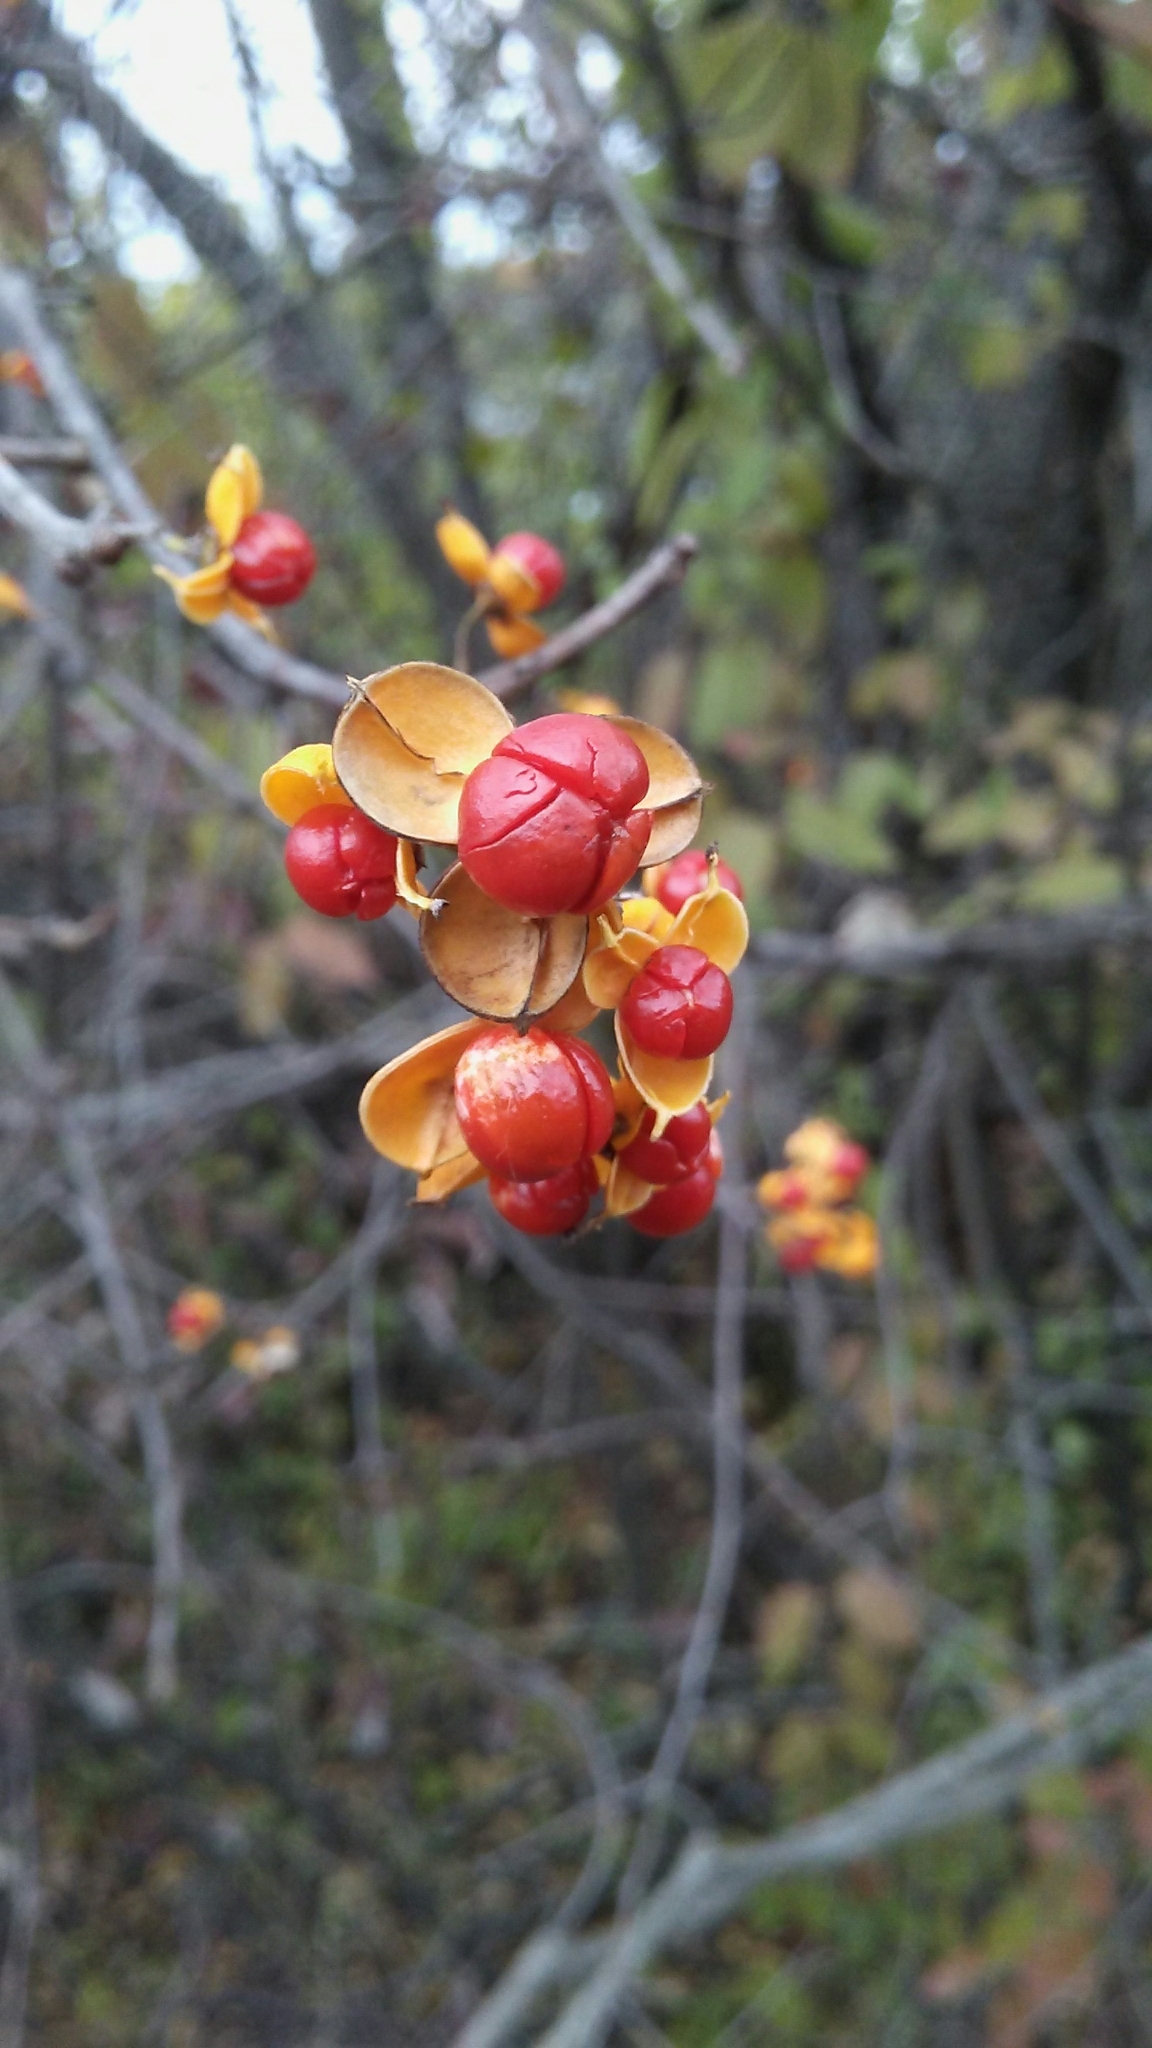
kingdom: Plantae
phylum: Tracheophyta
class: Magnoliopsida
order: Celastrales
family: Celastraceae
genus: Celastrus
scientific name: Celastrus orbiculatus
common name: Oriental bittersweet
